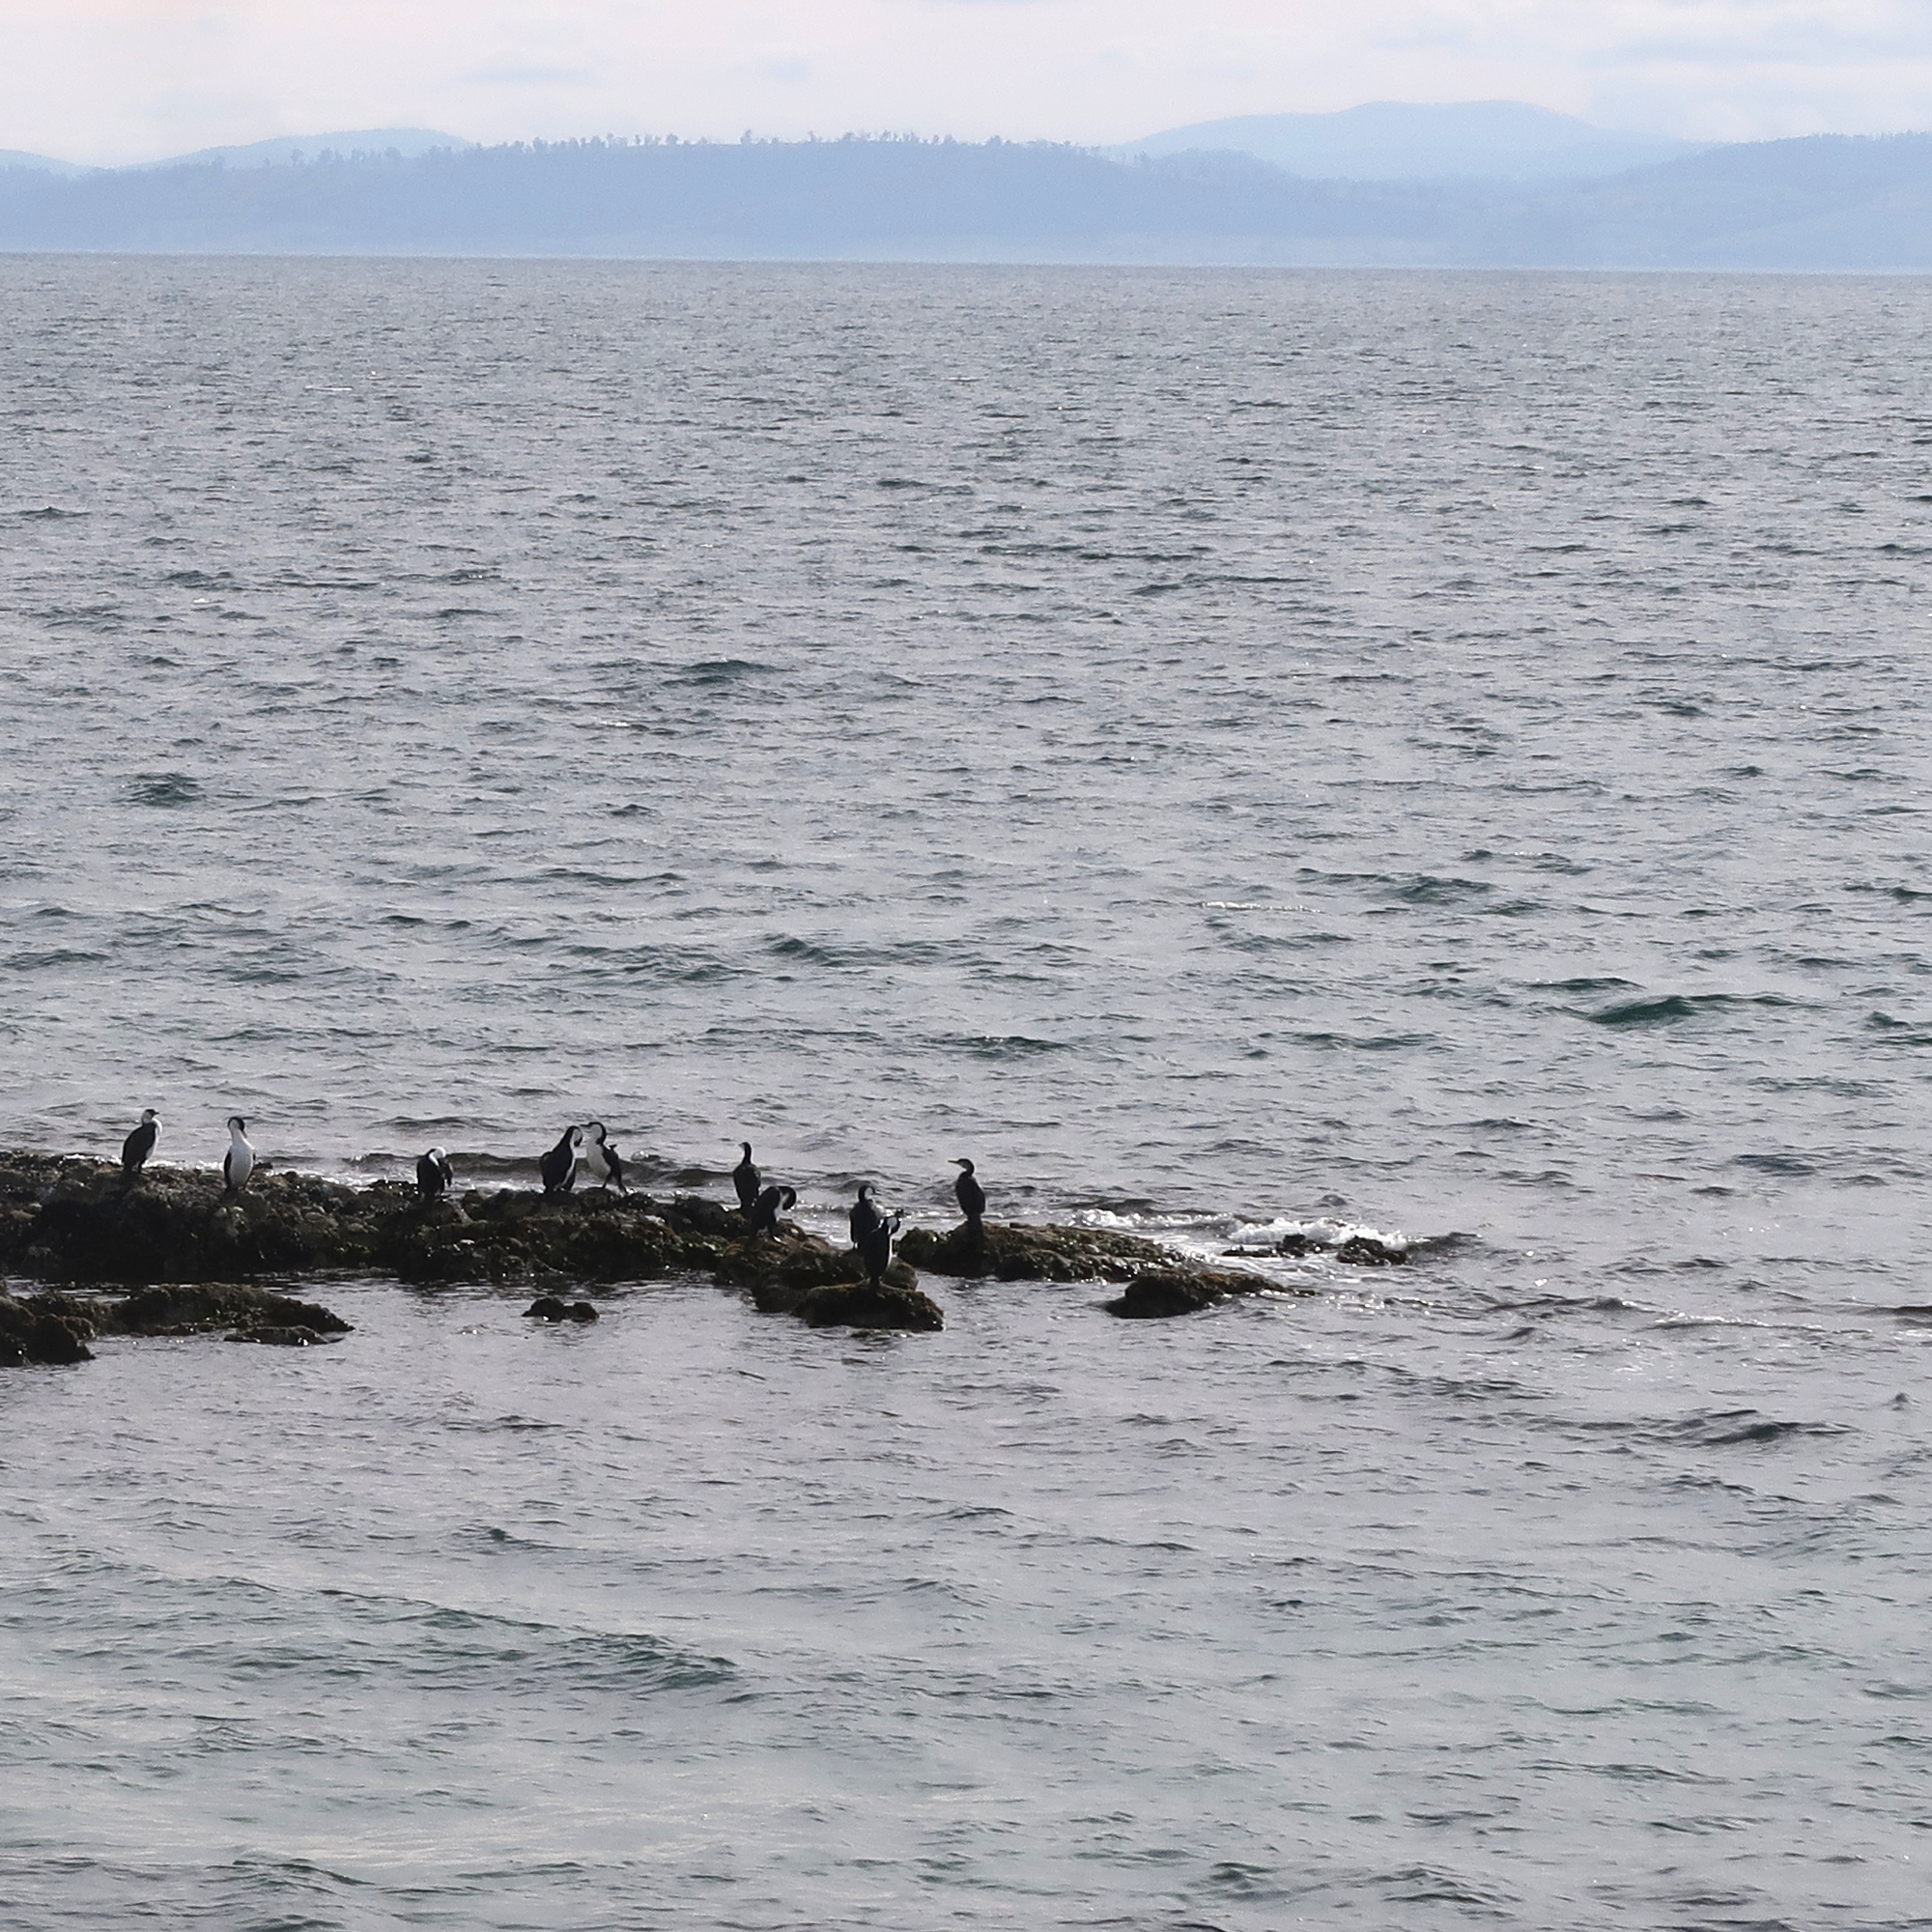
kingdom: Animalia
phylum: Chordata
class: Aves
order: Suliformes
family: Phalacrocoracidae
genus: Phalacrocorax
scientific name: Phalacrocorax fuscescens
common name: Black-faced cormorant
